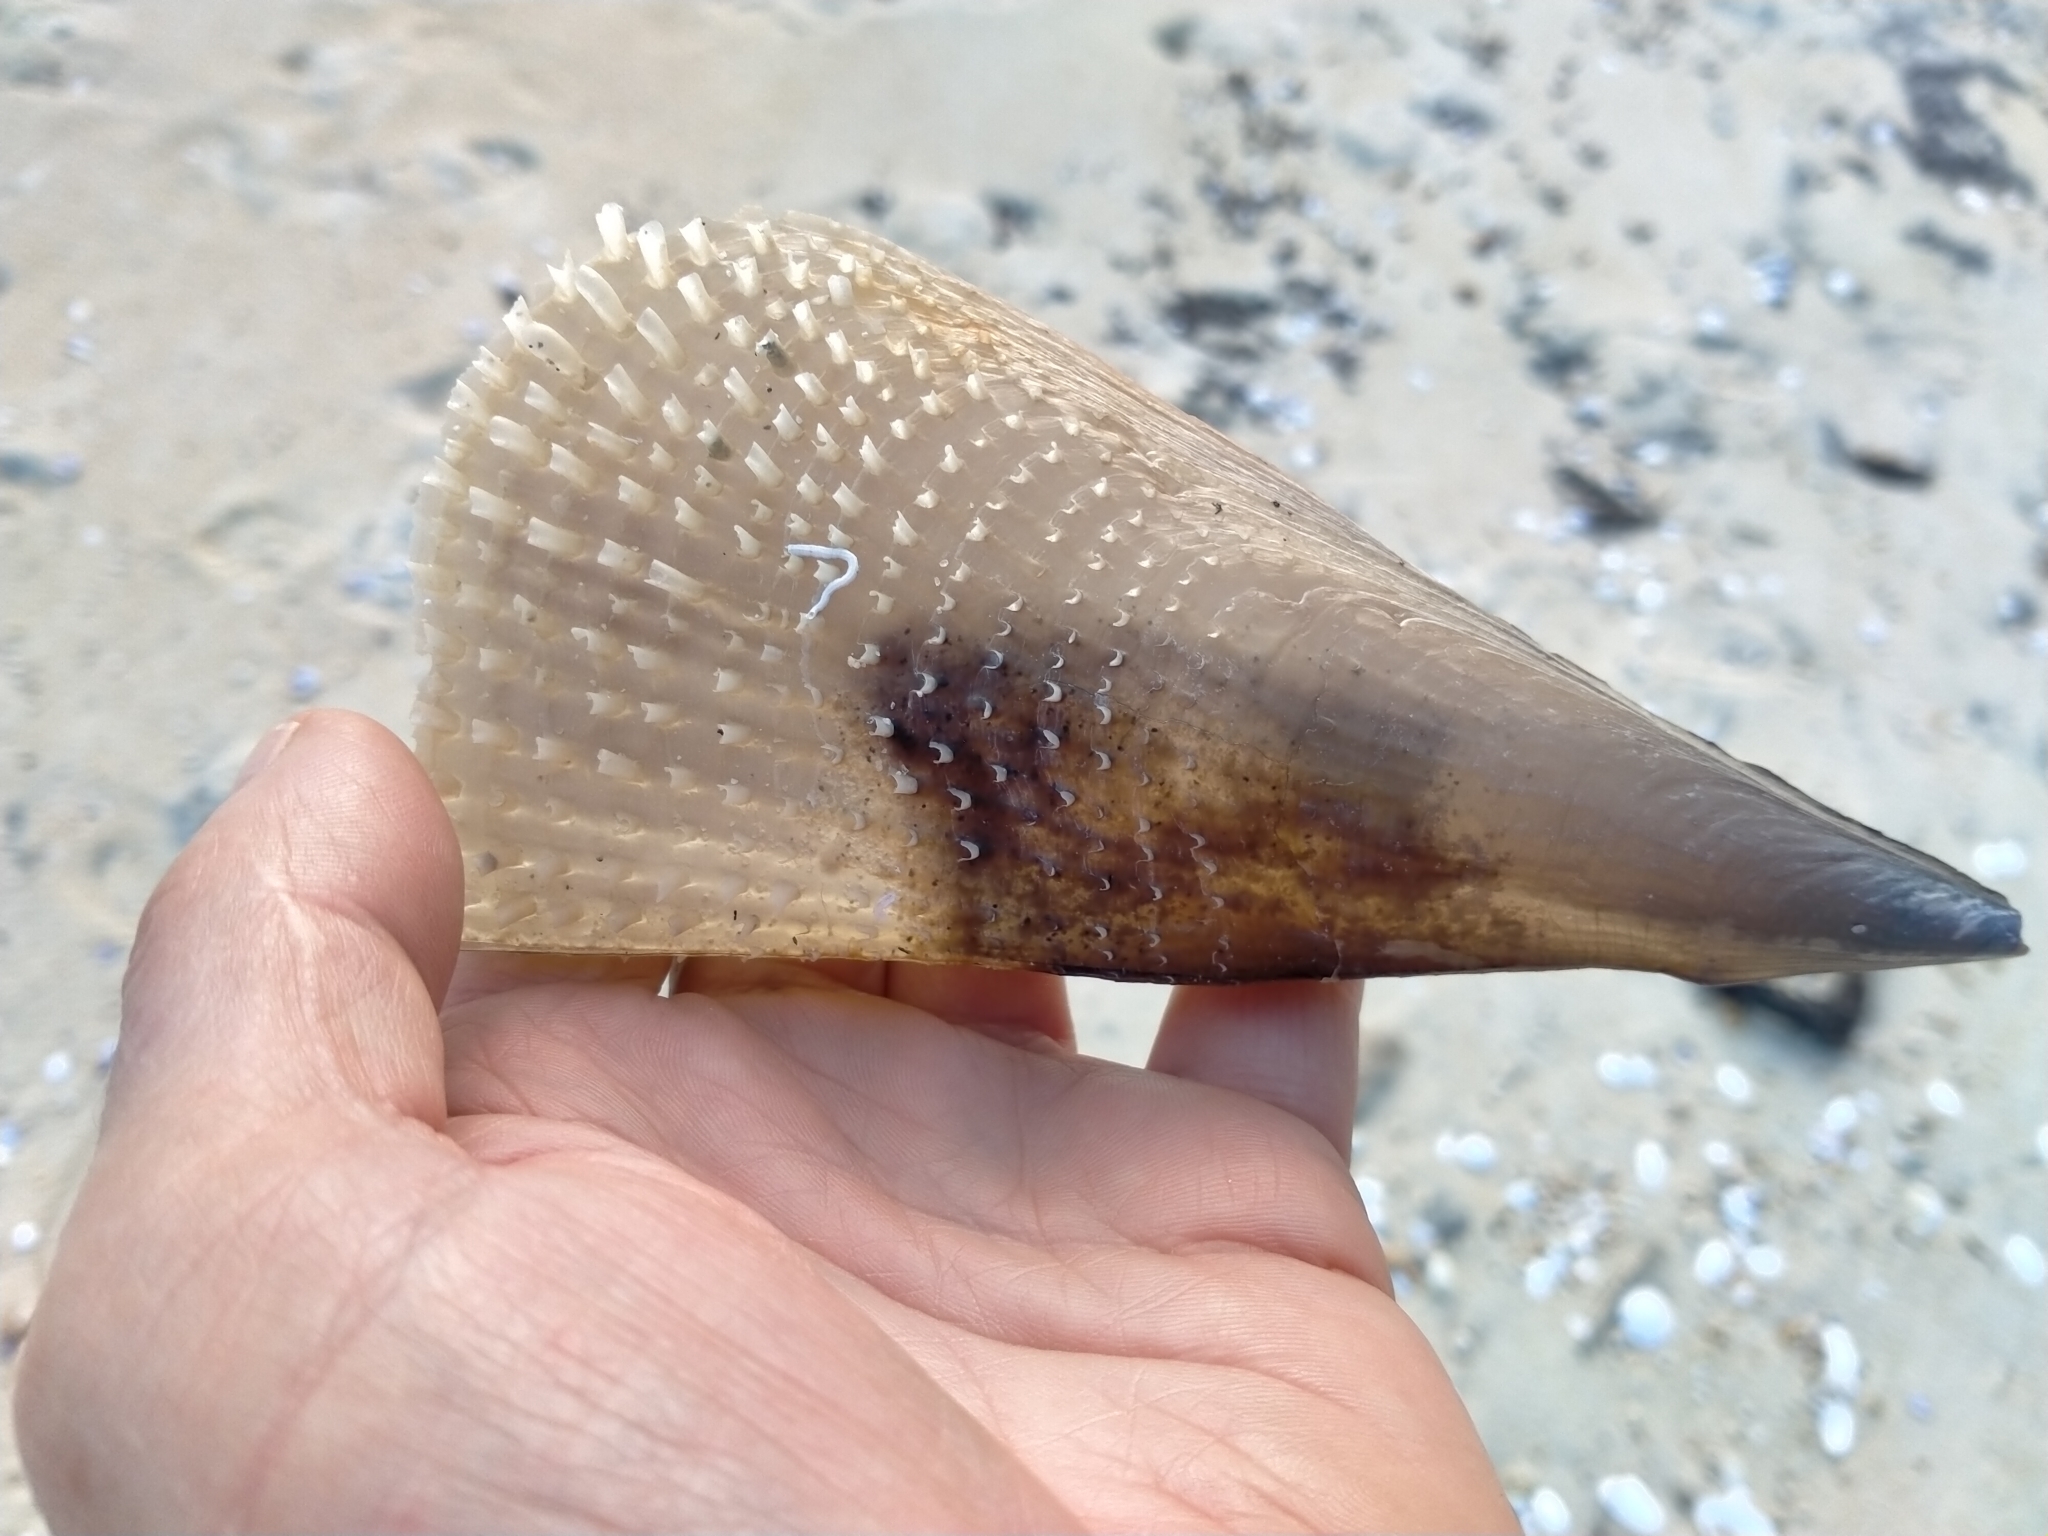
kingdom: Animalia
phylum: Mollusca
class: Bivalvia
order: Ostreida
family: Pinnidae
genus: Atrina
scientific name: Atrina zelandica
